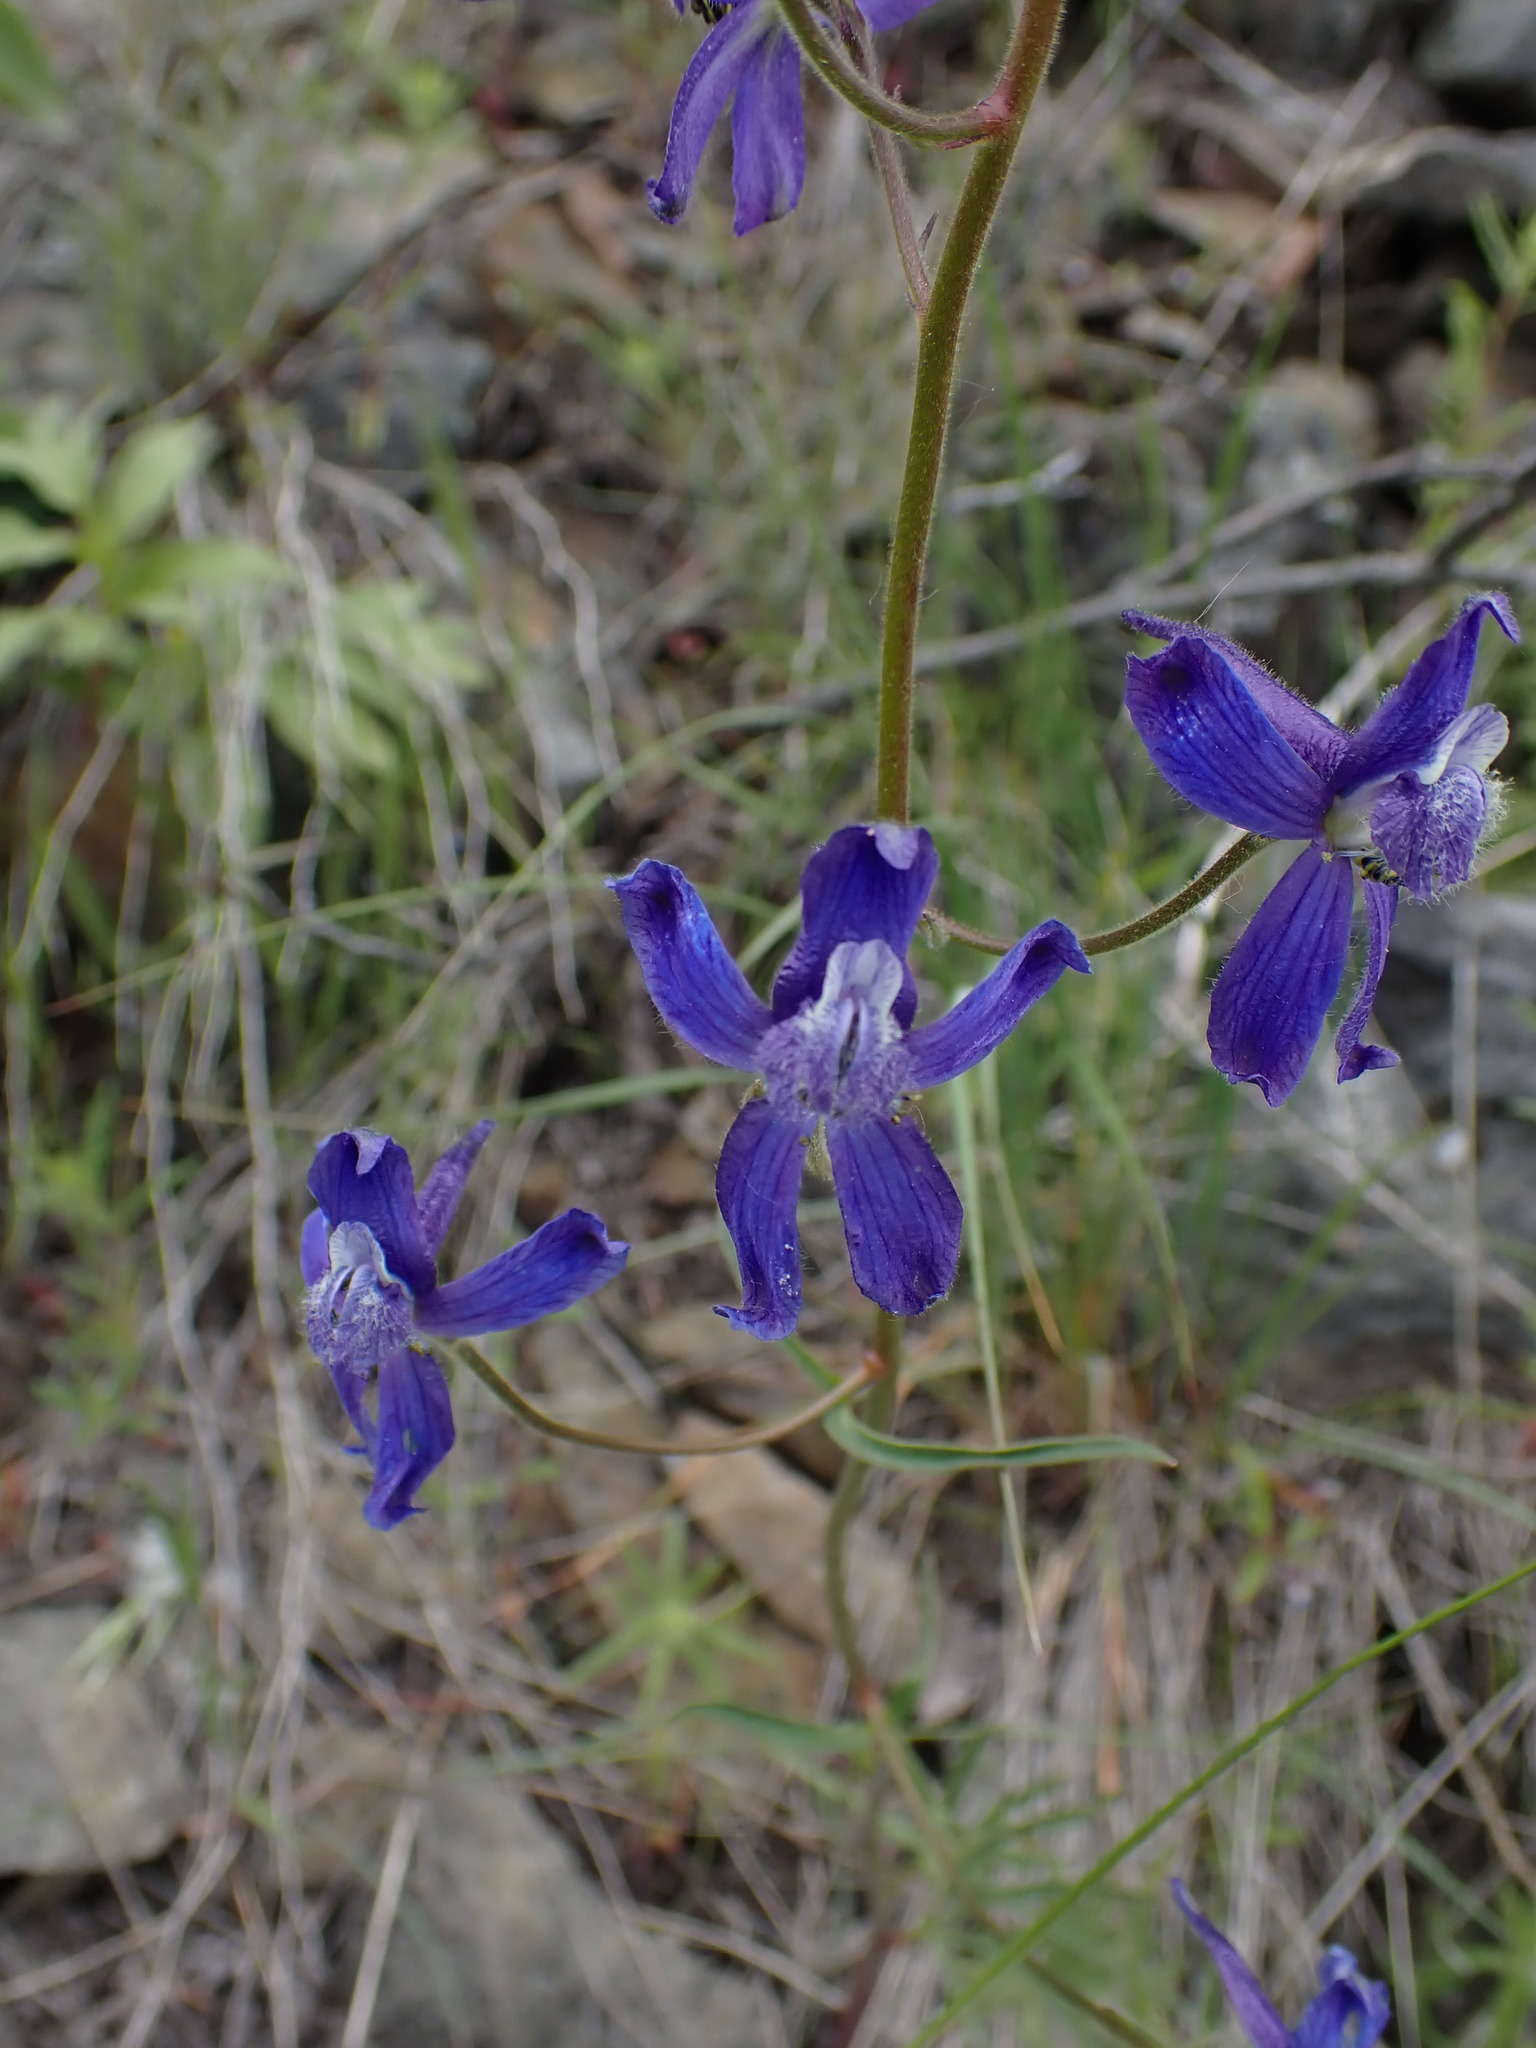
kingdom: Plantae
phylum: Tracheophyta
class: Magnoliopsida
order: Ranunculales
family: Ranunculaceae
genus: Delphinium
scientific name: Delphinium nuttallianum
